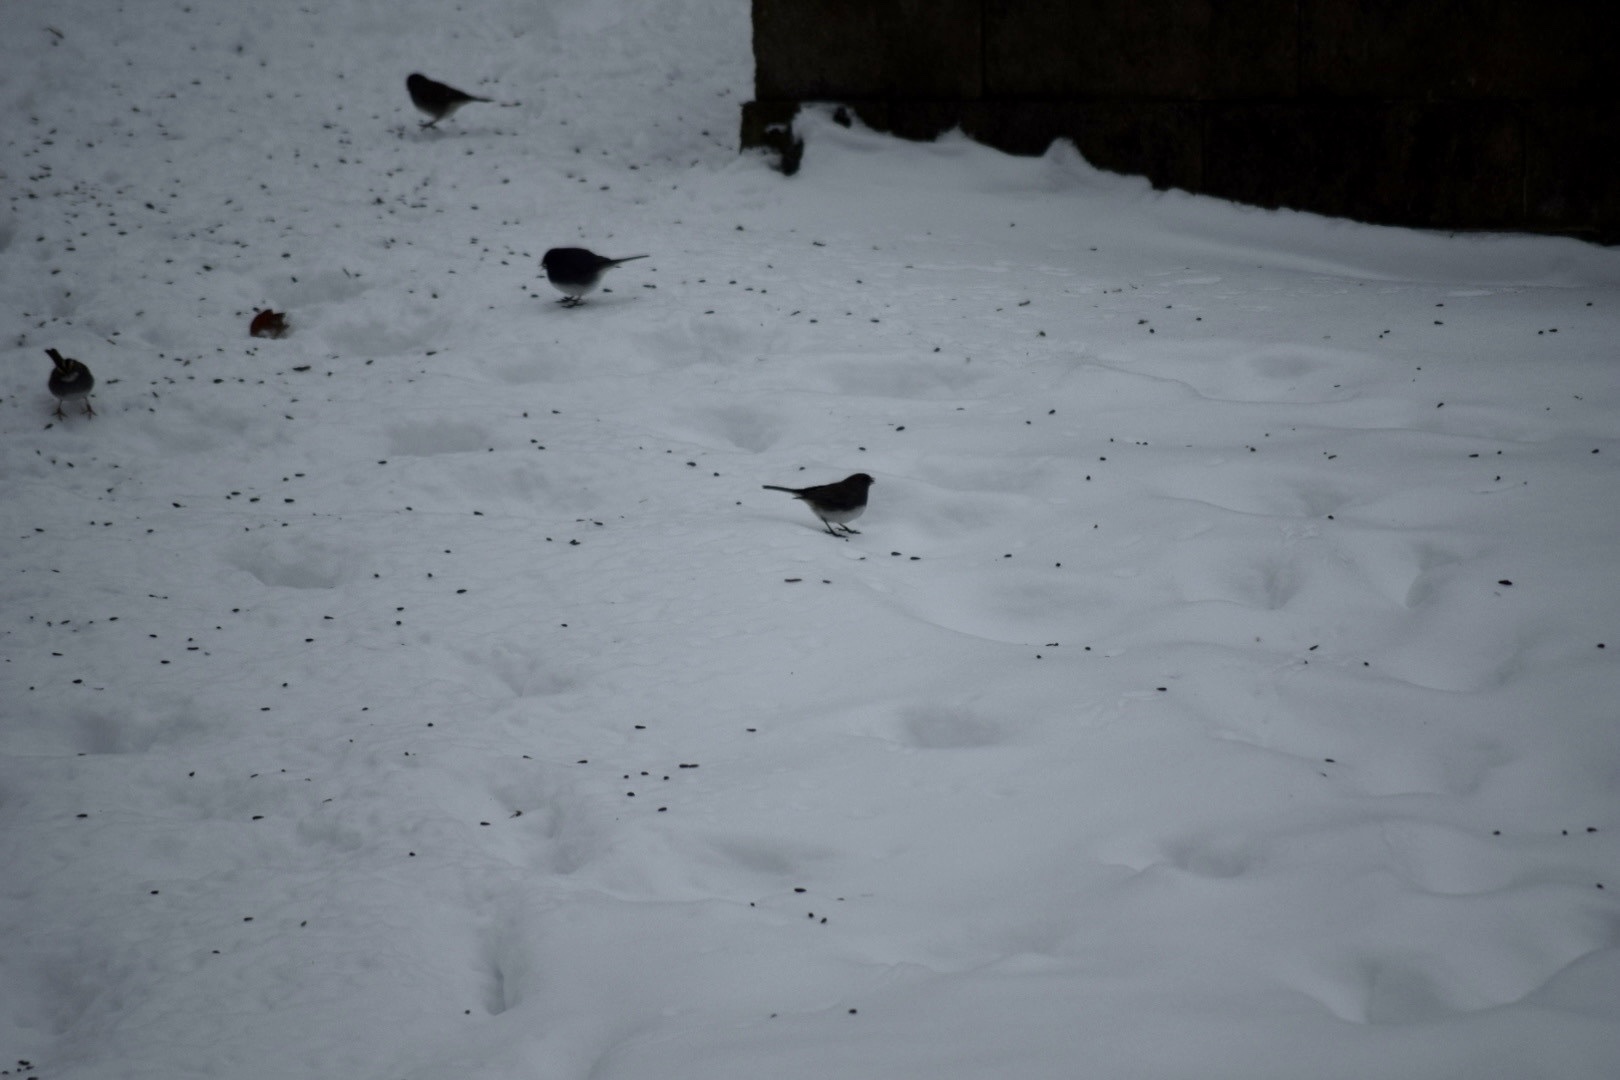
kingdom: Animalia
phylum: Chordata
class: Aves
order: Passeriformes
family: Passerellidae
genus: Junco
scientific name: Junco hyemalis
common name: Dark-eyed junco
